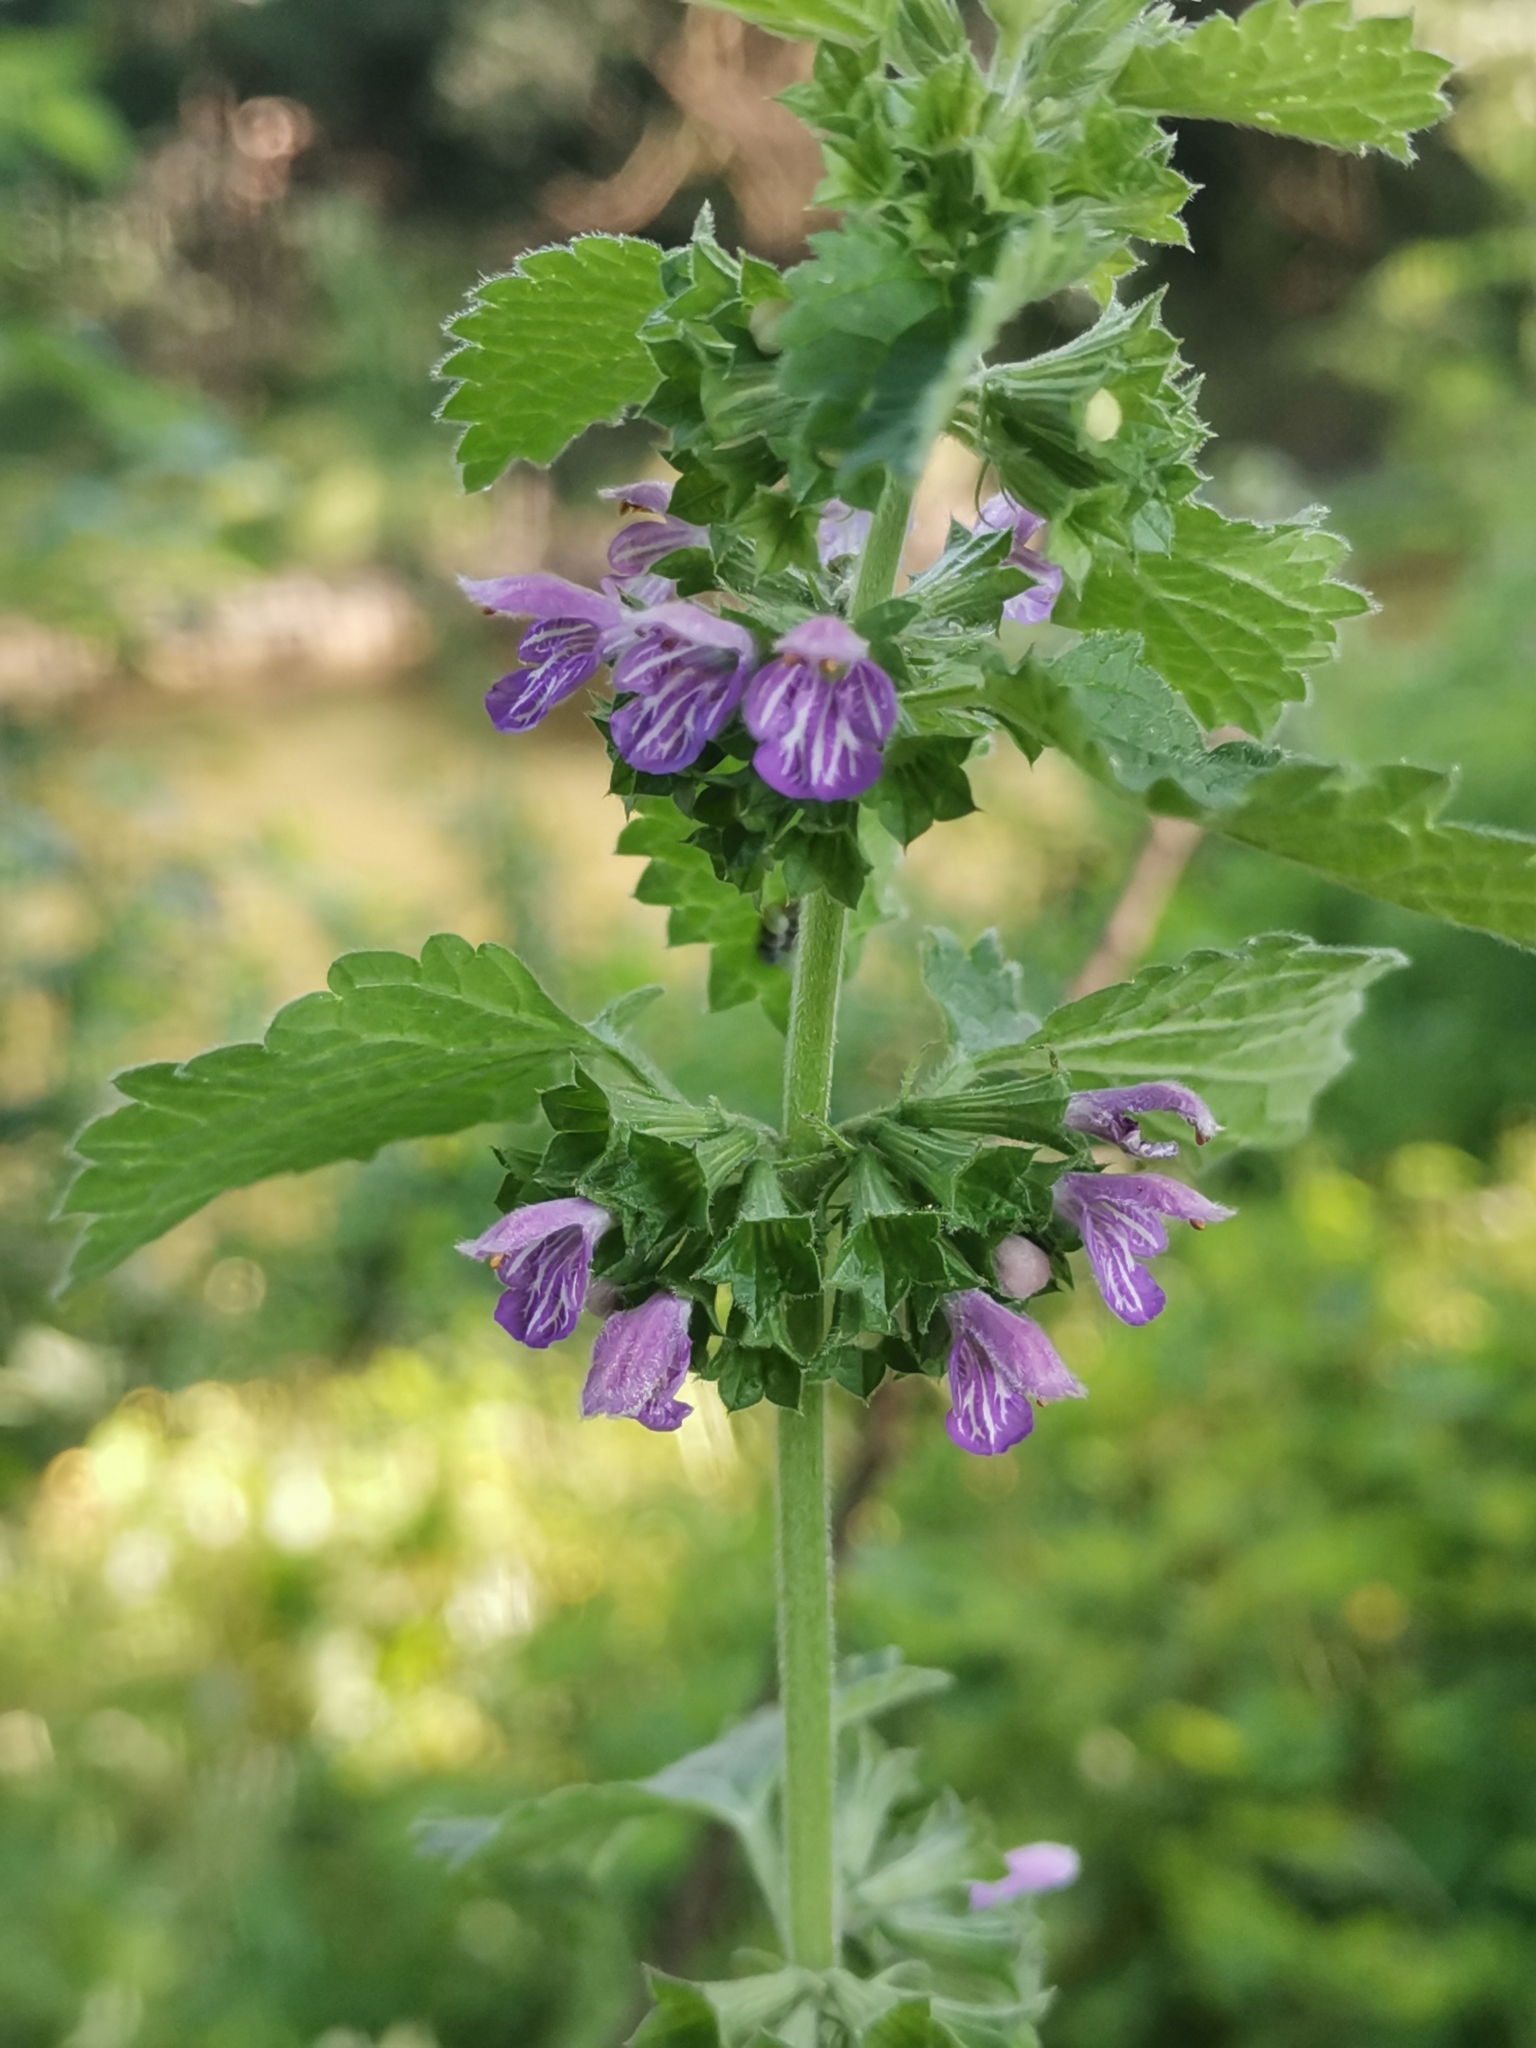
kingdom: Plantae
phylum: Tracheophyta
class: Magnoliopsida
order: Lamiales
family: Lamiaceae
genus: Ballota
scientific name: Ballota nigra
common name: Black horehound
